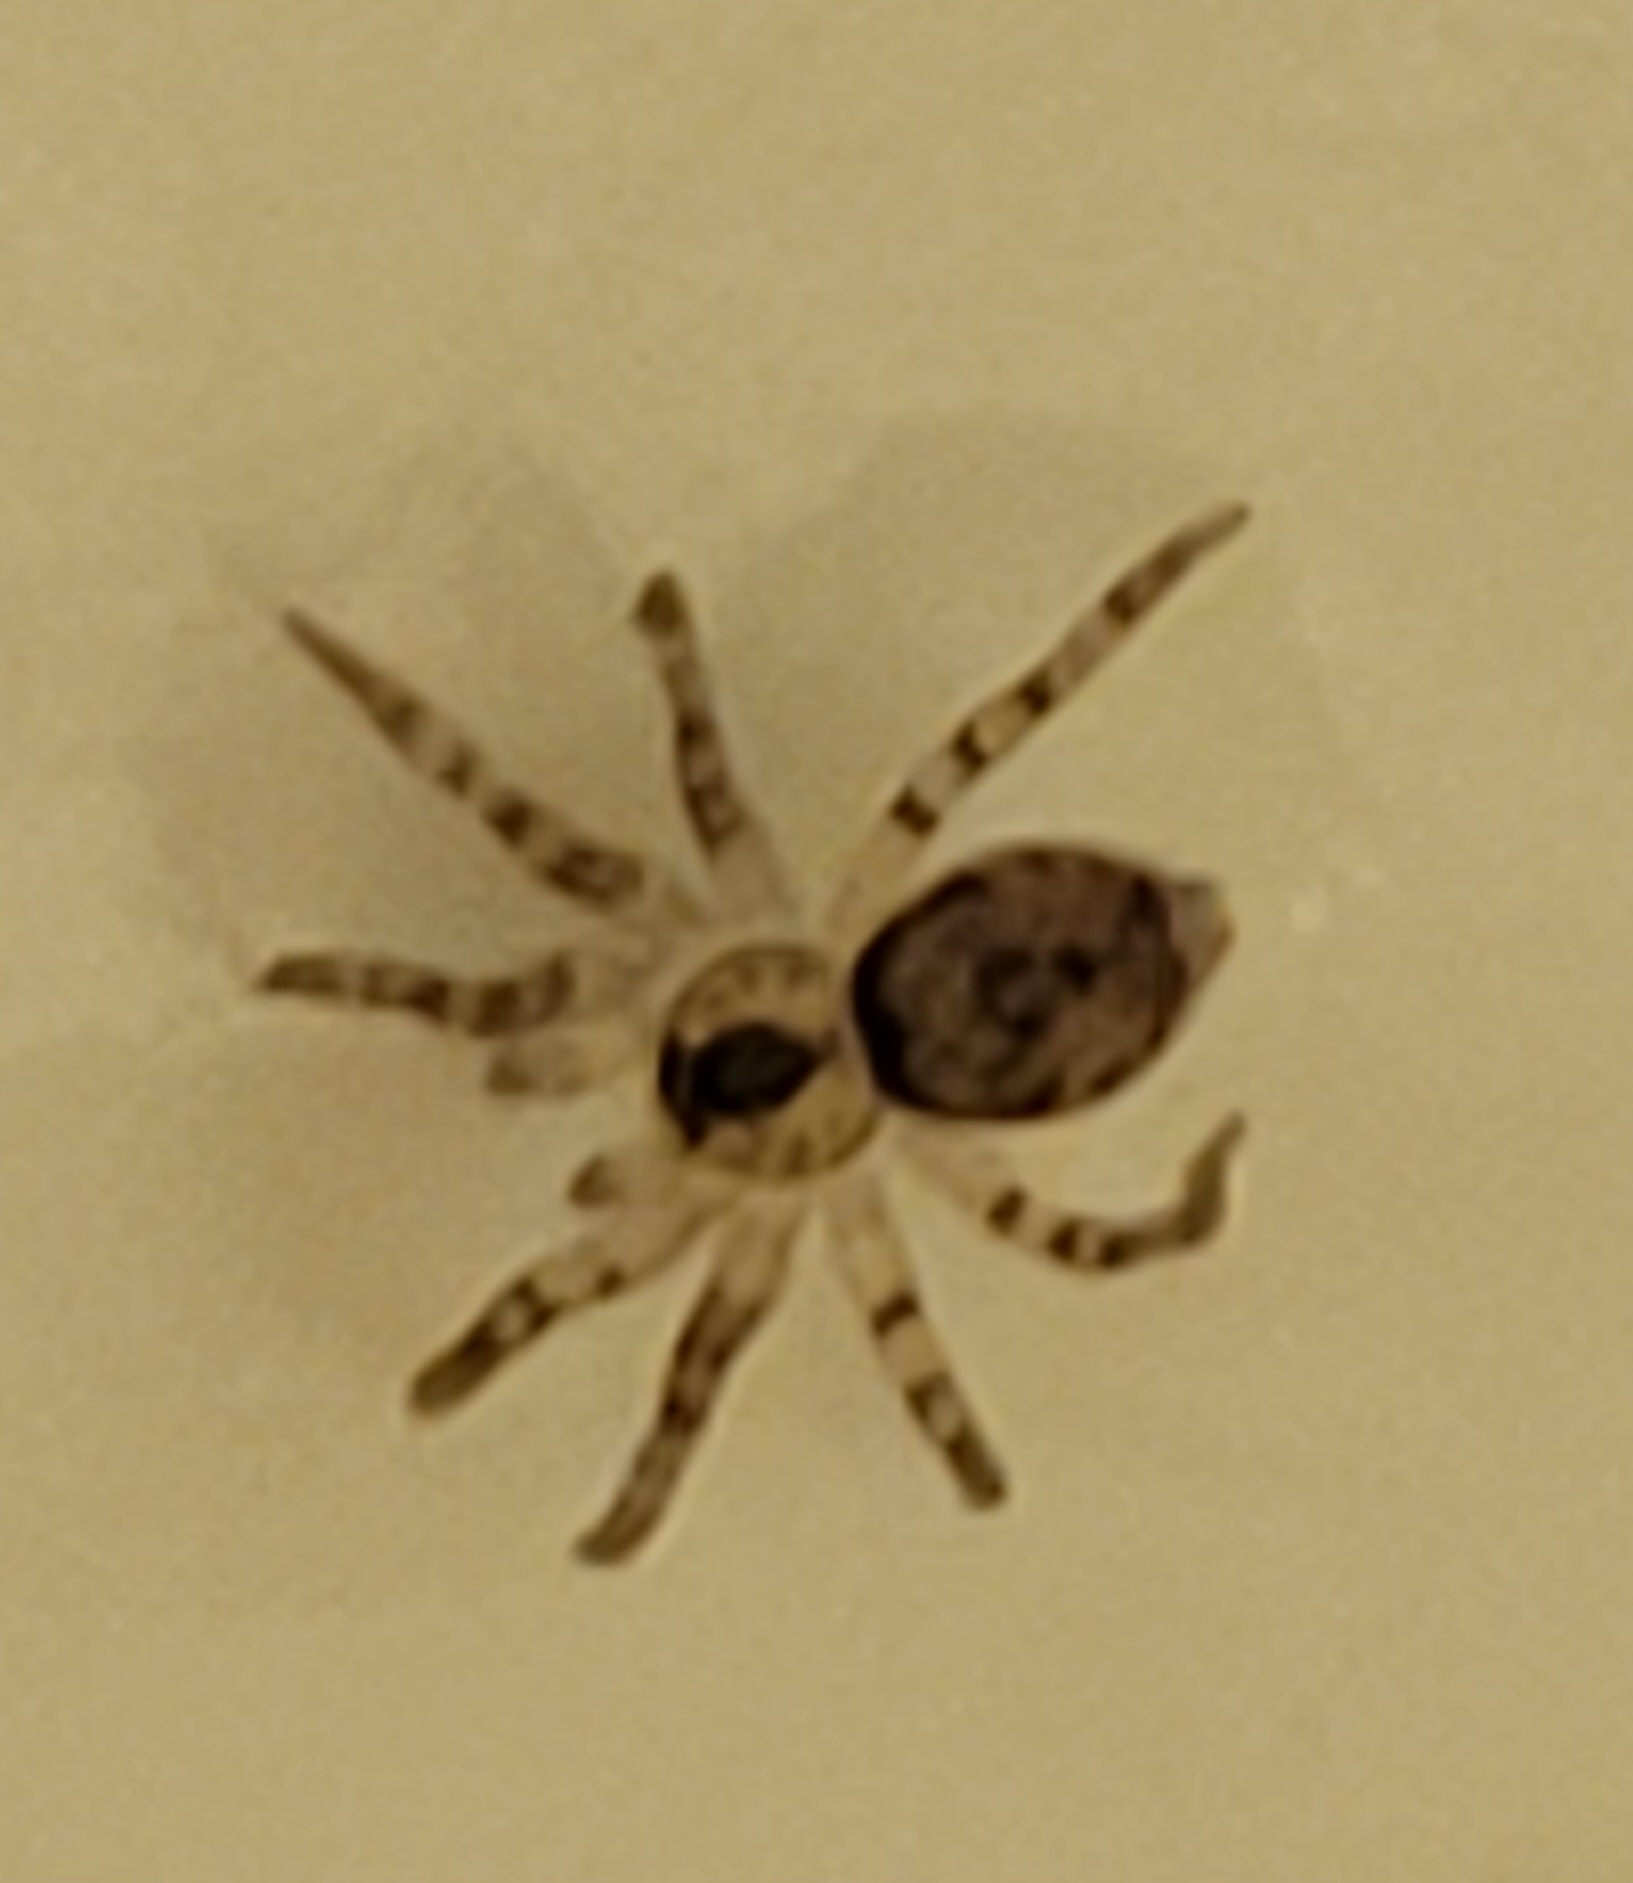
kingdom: Animalia
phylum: Arthropoda
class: Arachnida
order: Araneae
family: Oecobiidae
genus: Oecobius
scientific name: Oecobius navus
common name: Flatmesh weaver
